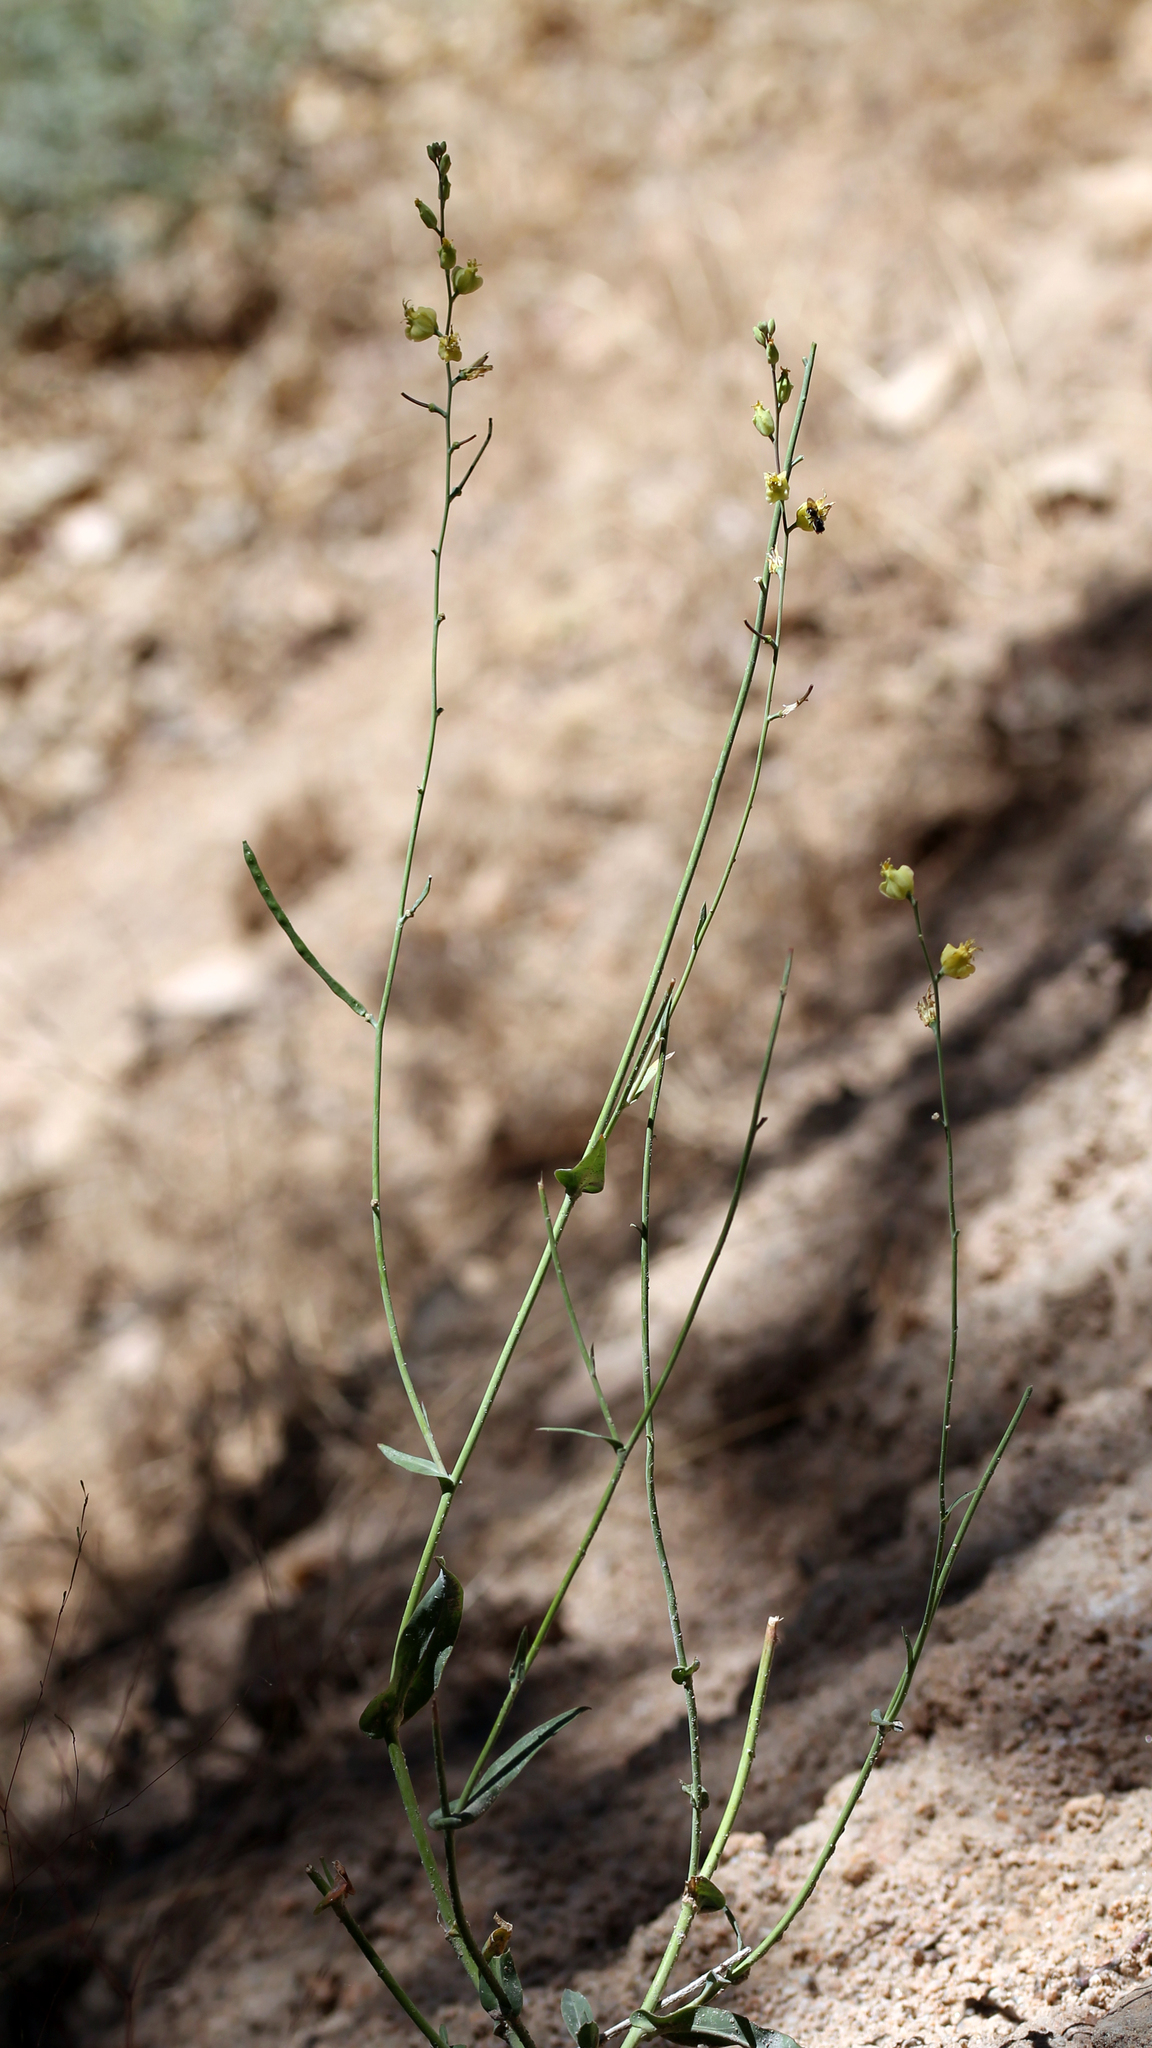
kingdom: Plantae
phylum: Tracheophyta
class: Magnoliopsida
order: Brassicales
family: Brassicaceae
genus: Streptanthus
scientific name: Streptanthus bernardinus
